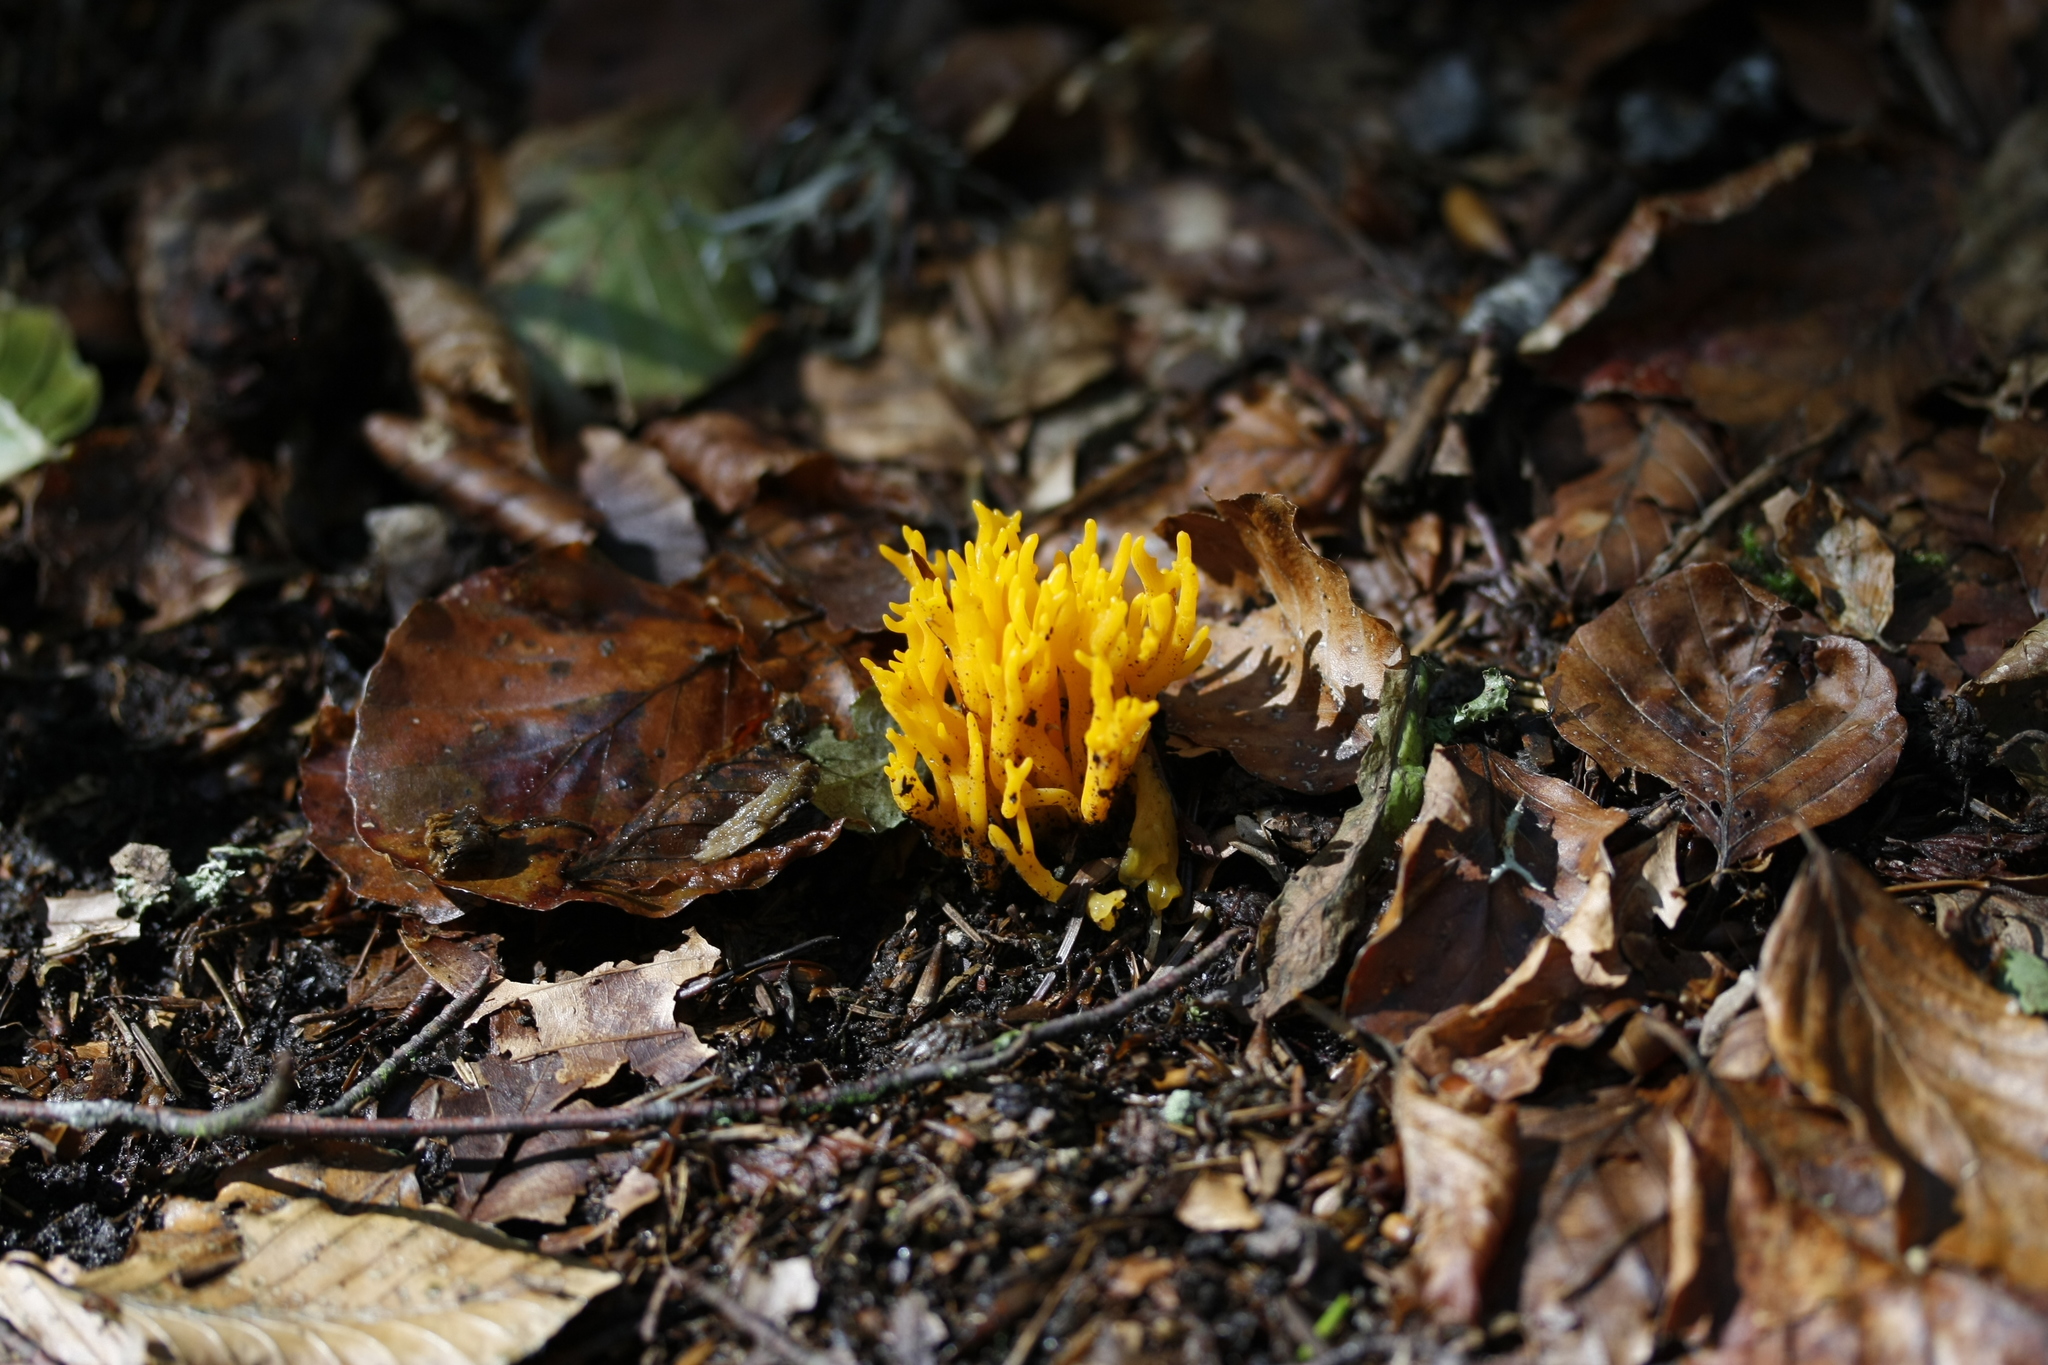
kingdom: Fungi
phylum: Basidiomycota
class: Dacrymycetes
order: Dacrymycetales
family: Dacrymycetaceae
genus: Calocera
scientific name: Calocera viscosa
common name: Yellow stagshorn
